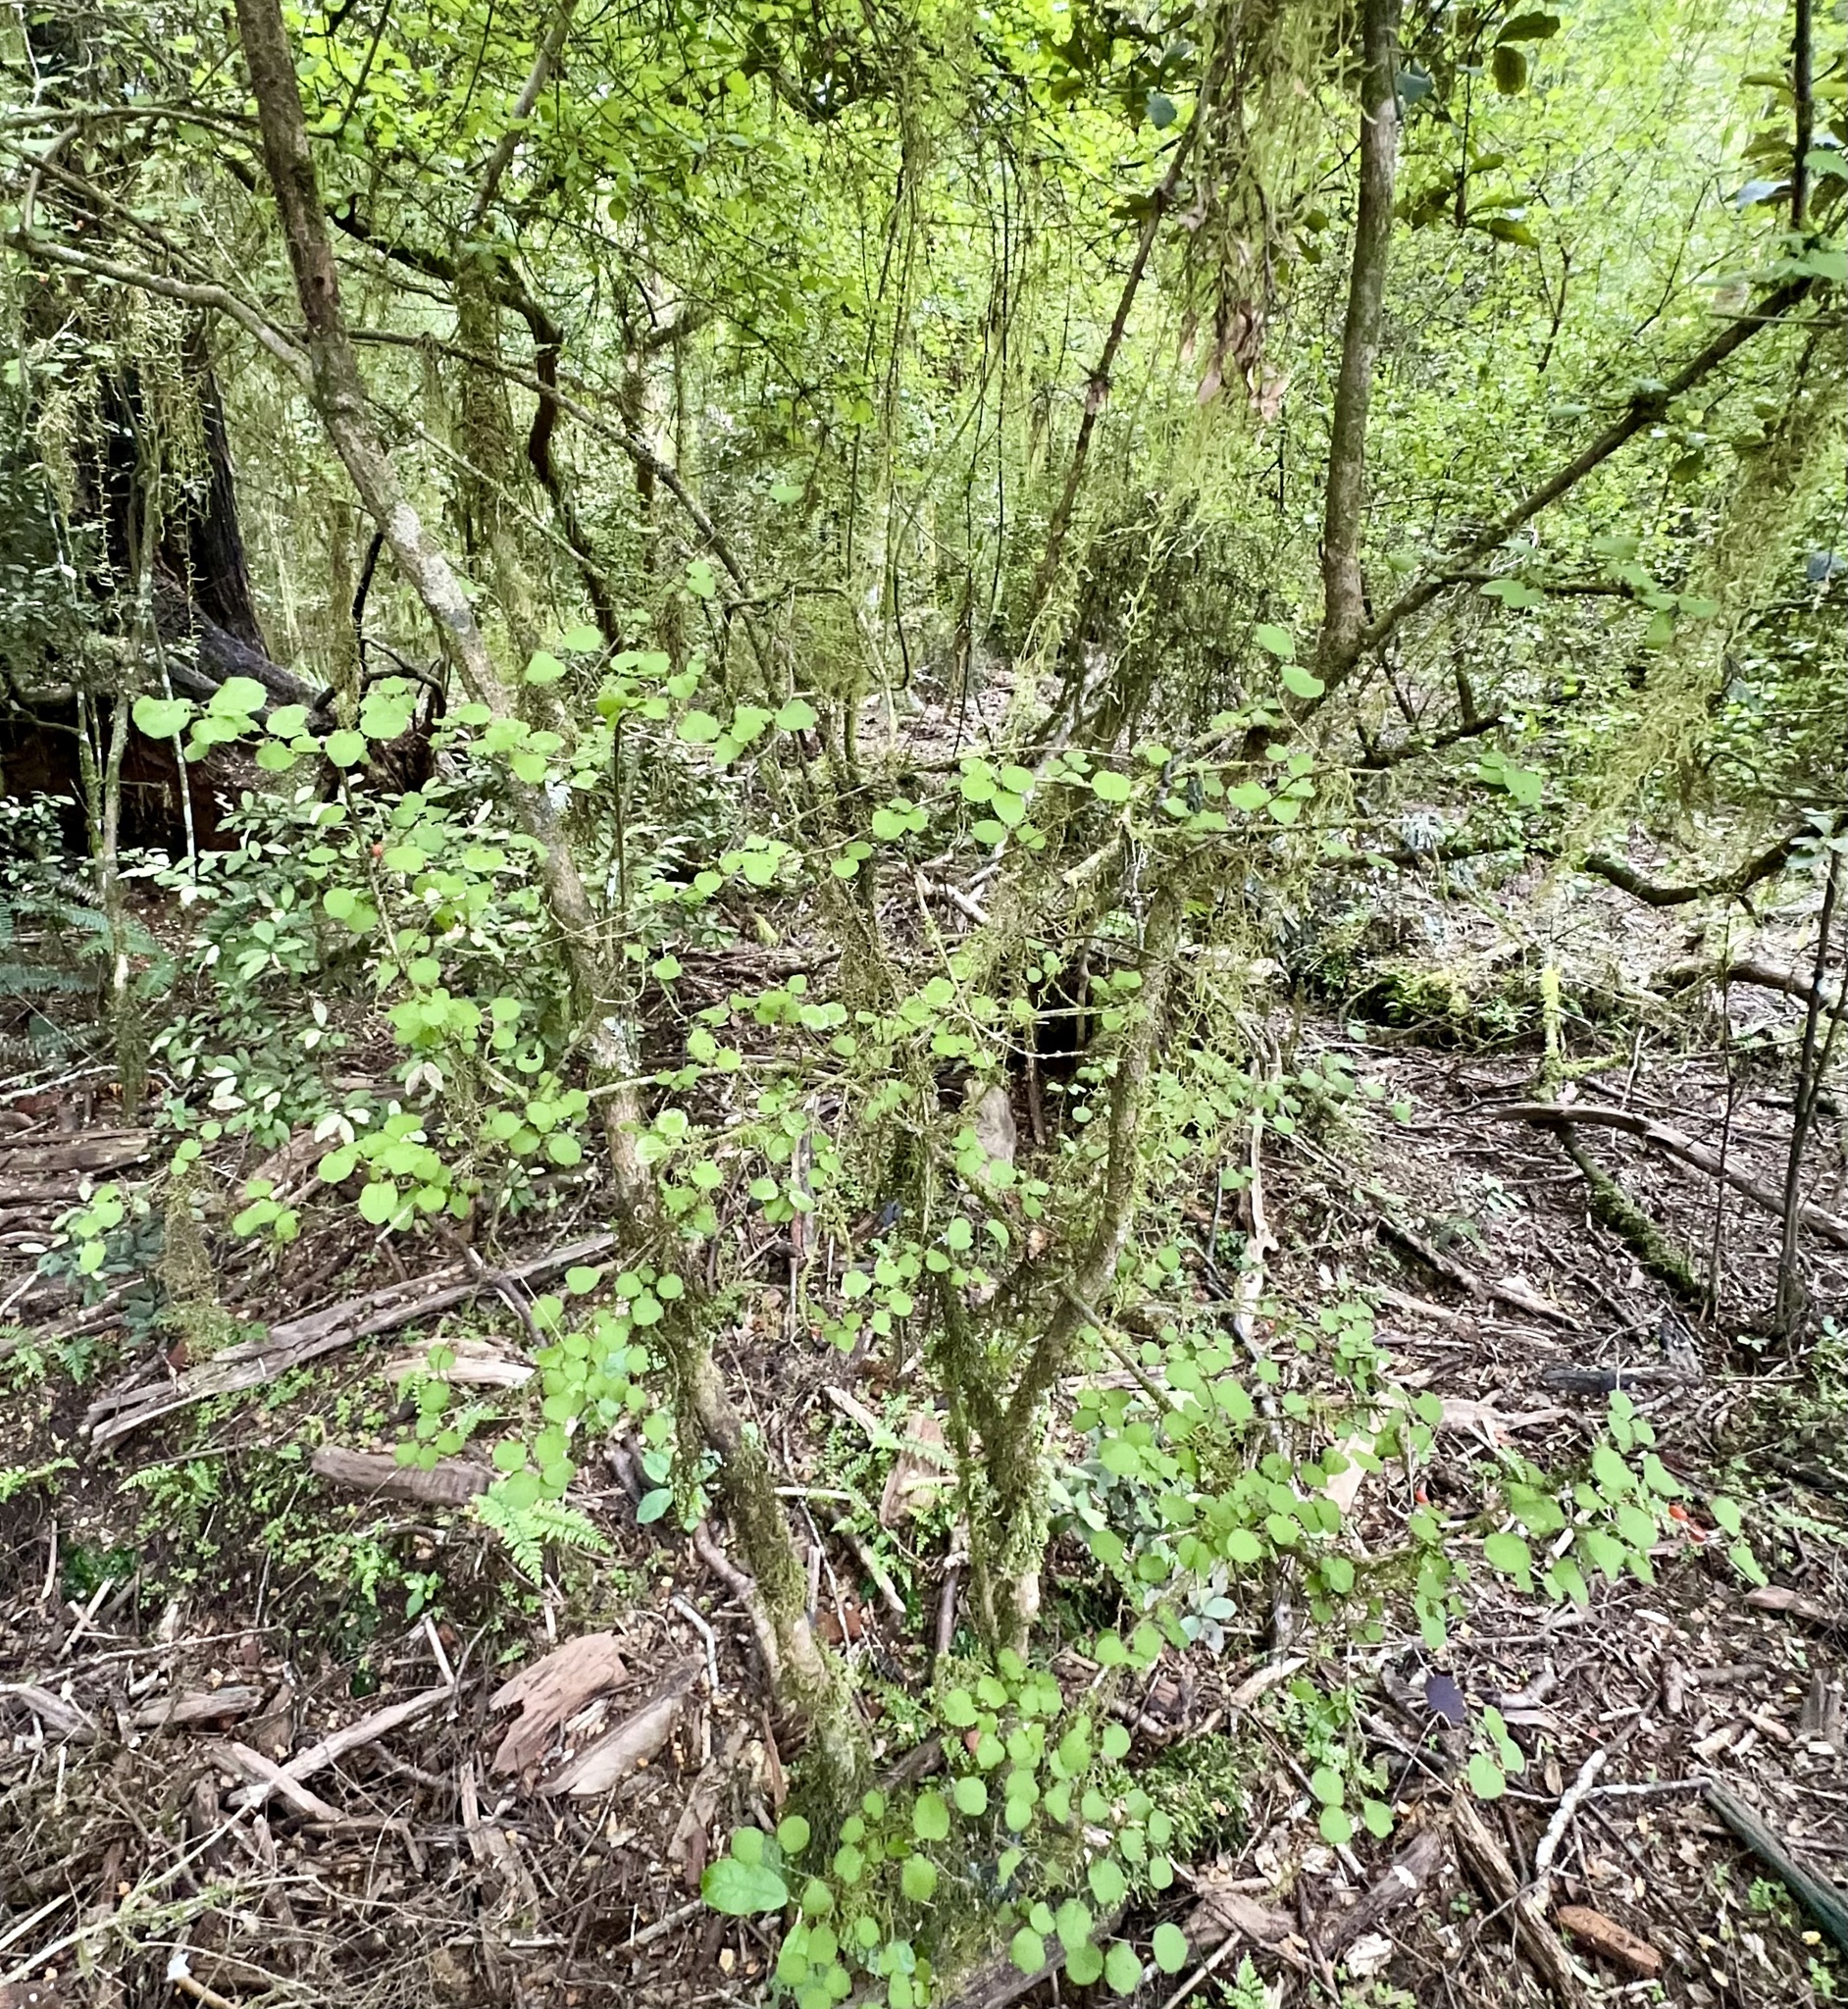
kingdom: Plantae
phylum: Tracheophyta
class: Magnoliopsida
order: Gentianales
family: Rubiaceae
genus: Coprosma
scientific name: Coprosma rotundifolia
